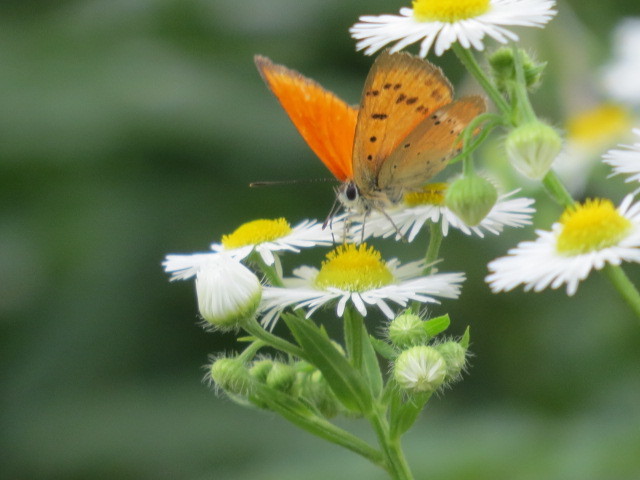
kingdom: Animalia
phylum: Arthropoda
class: Insecta
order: Lepidoptera
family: Lycaenidae
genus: Lycaena
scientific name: Lycaena virgaureae
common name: Scarce copper
